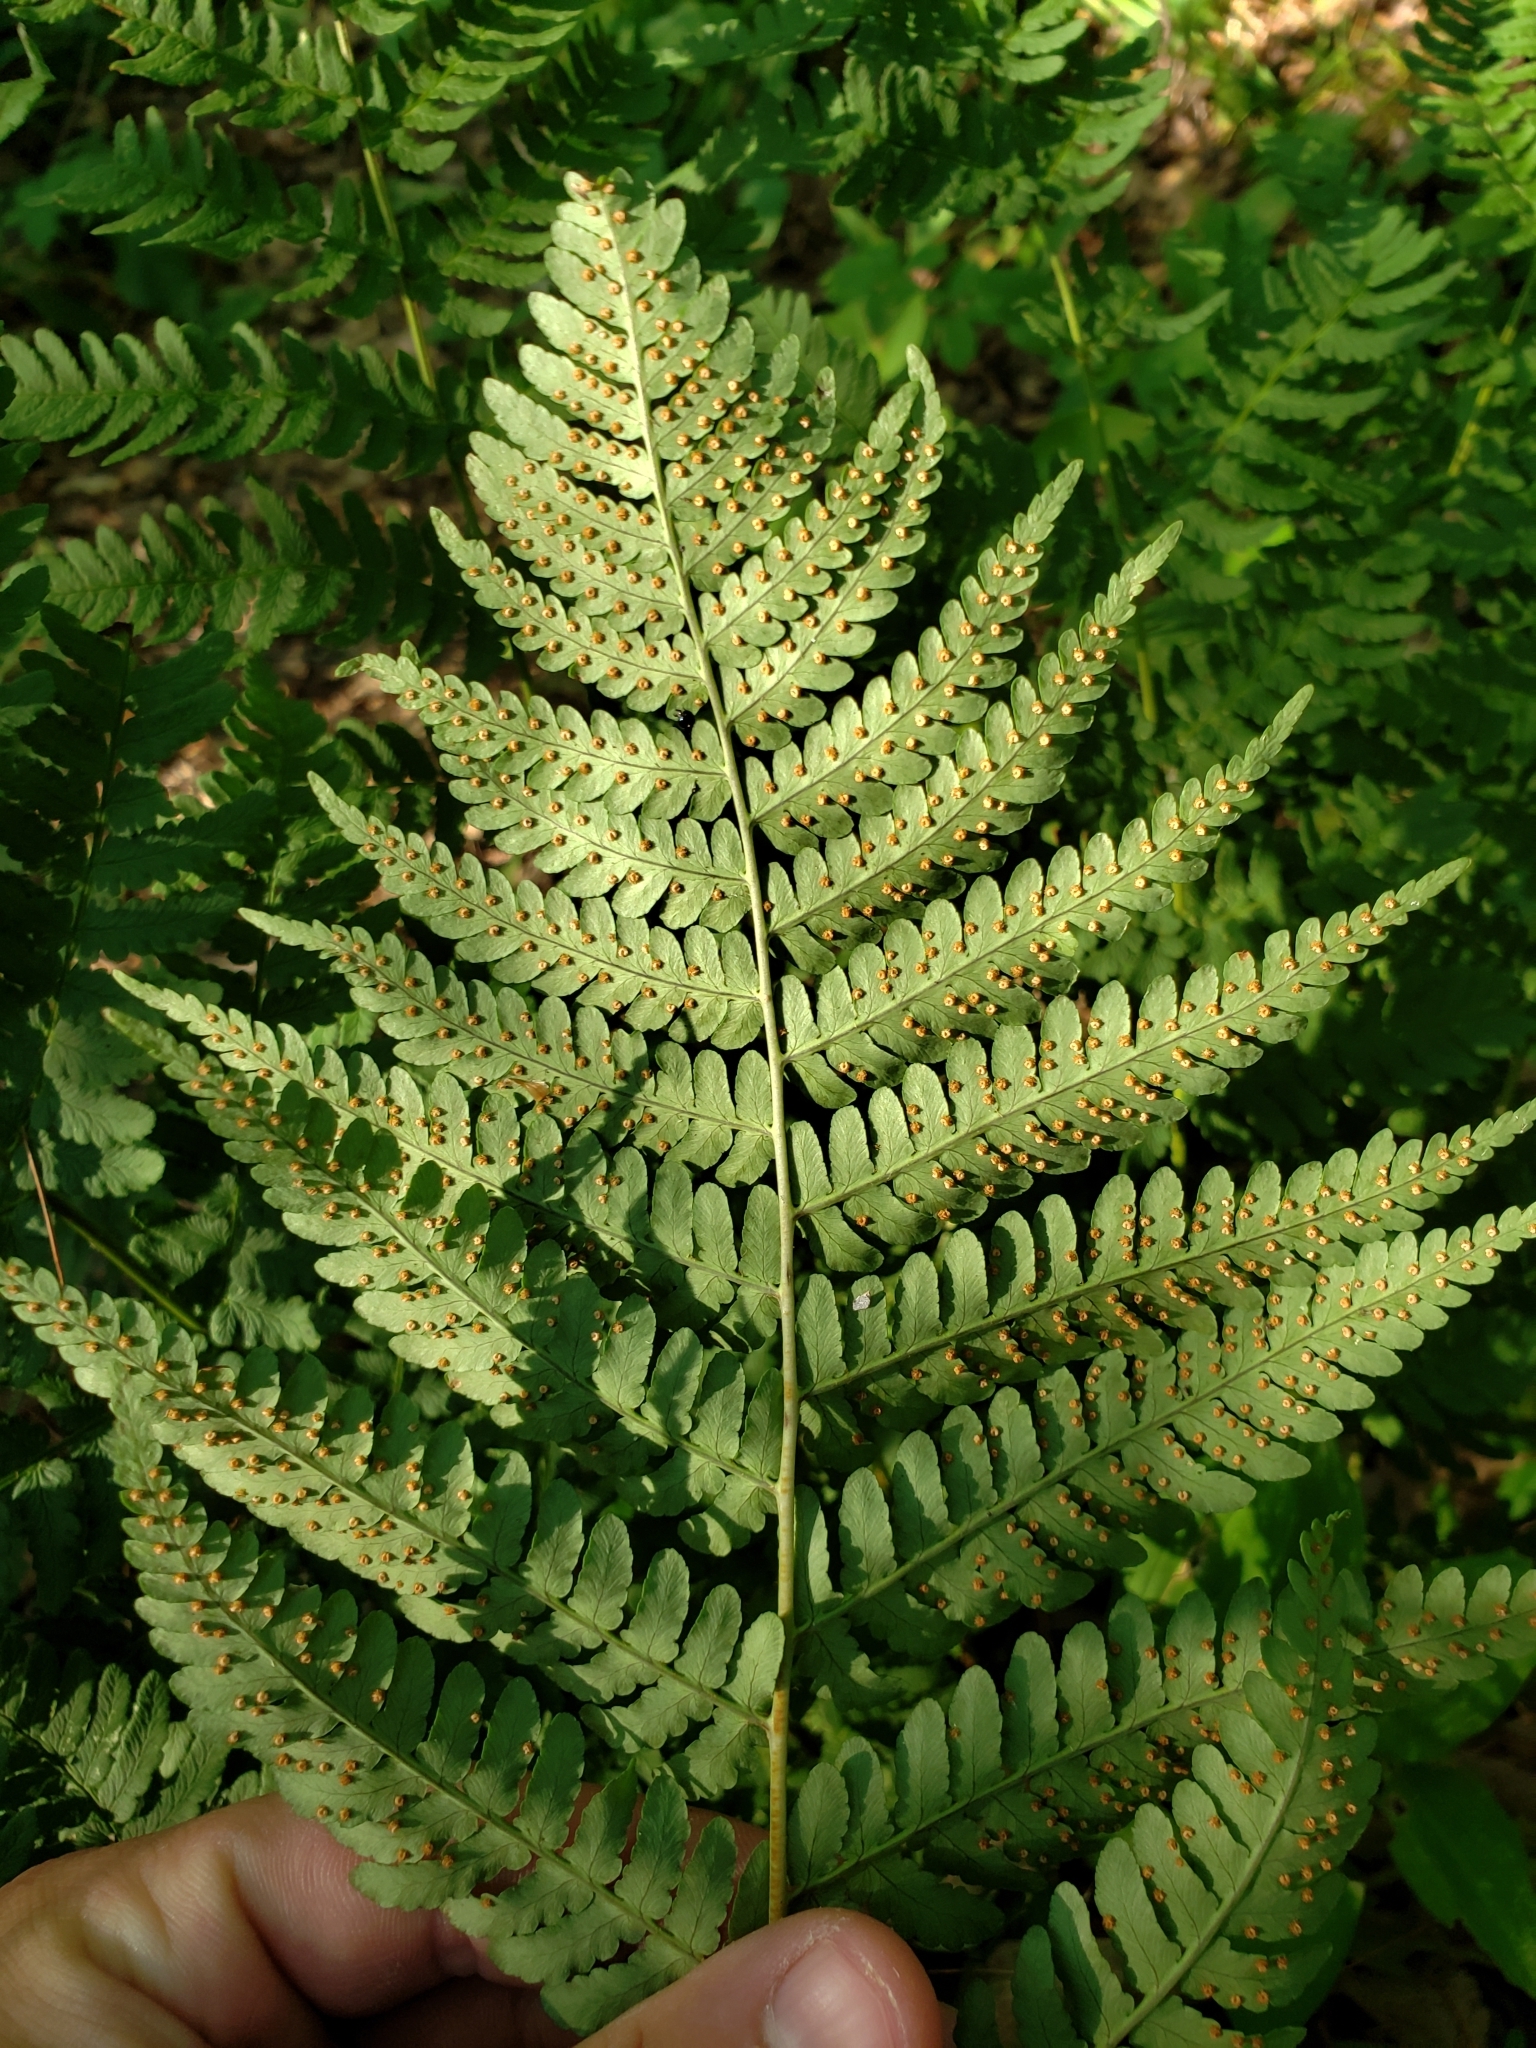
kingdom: Plantae
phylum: Tracheophyta
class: Polypodiopsida
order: Polypodiales
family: Dryopteridaceae
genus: Dryopteris
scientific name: Dryopteris marginalis
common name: Marginal wood fern
